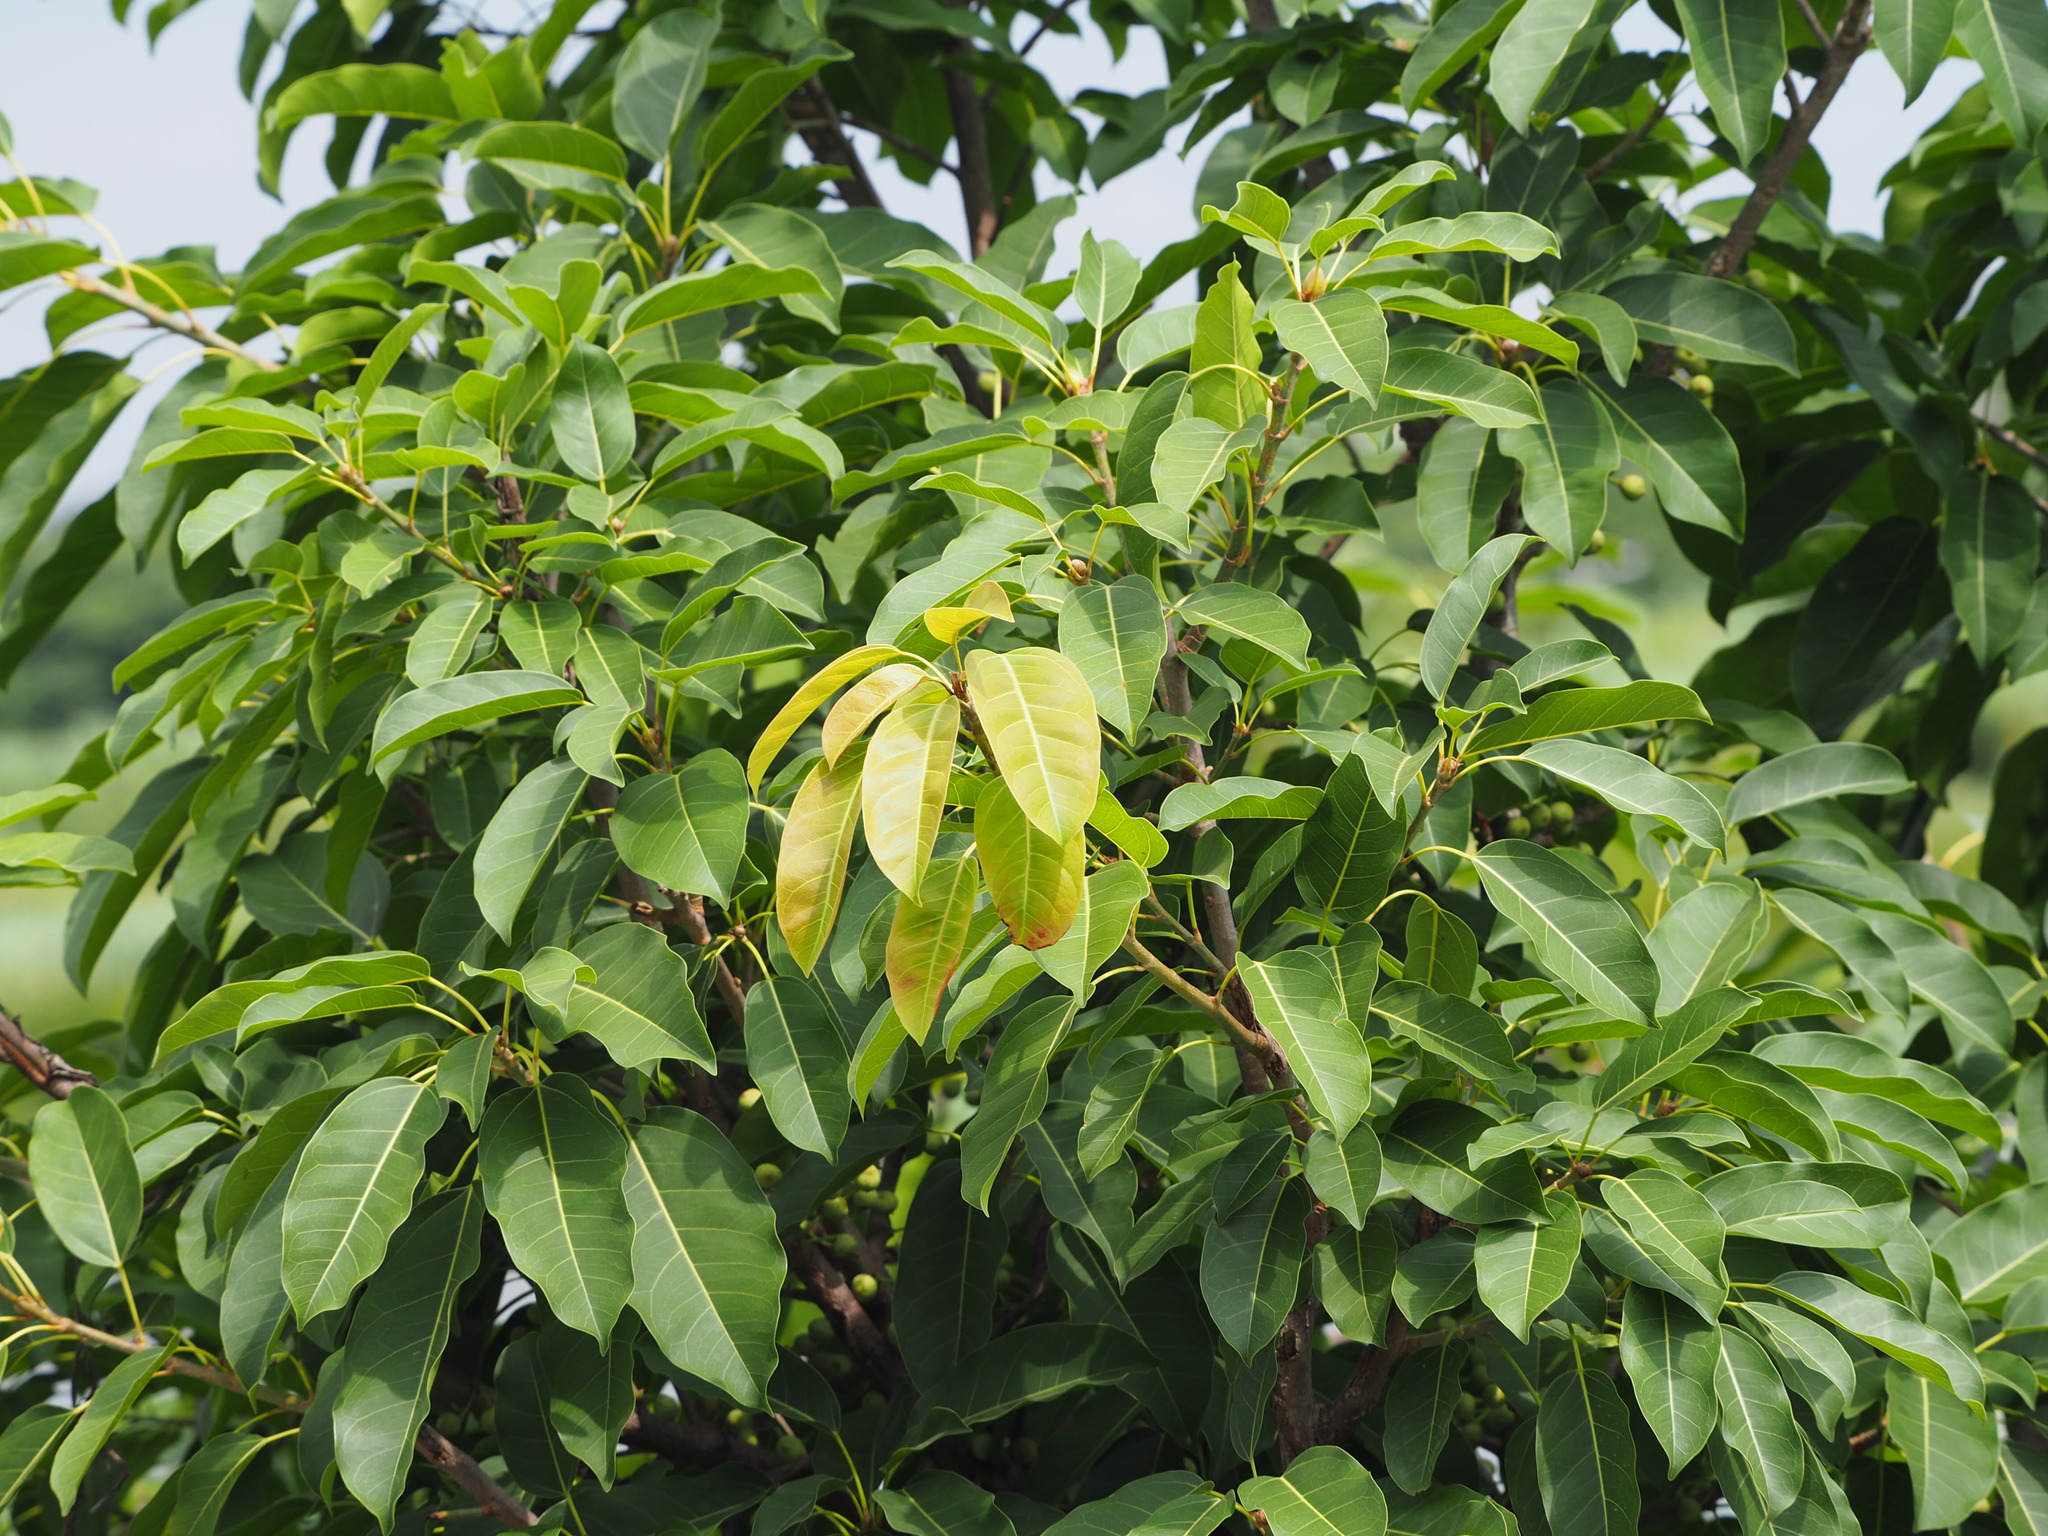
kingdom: Plantae
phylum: Tracheophyta
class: Magnoliopsida
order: Rosales
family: Moraceae
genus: Ficus
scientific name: Ficus subpisocarpa
